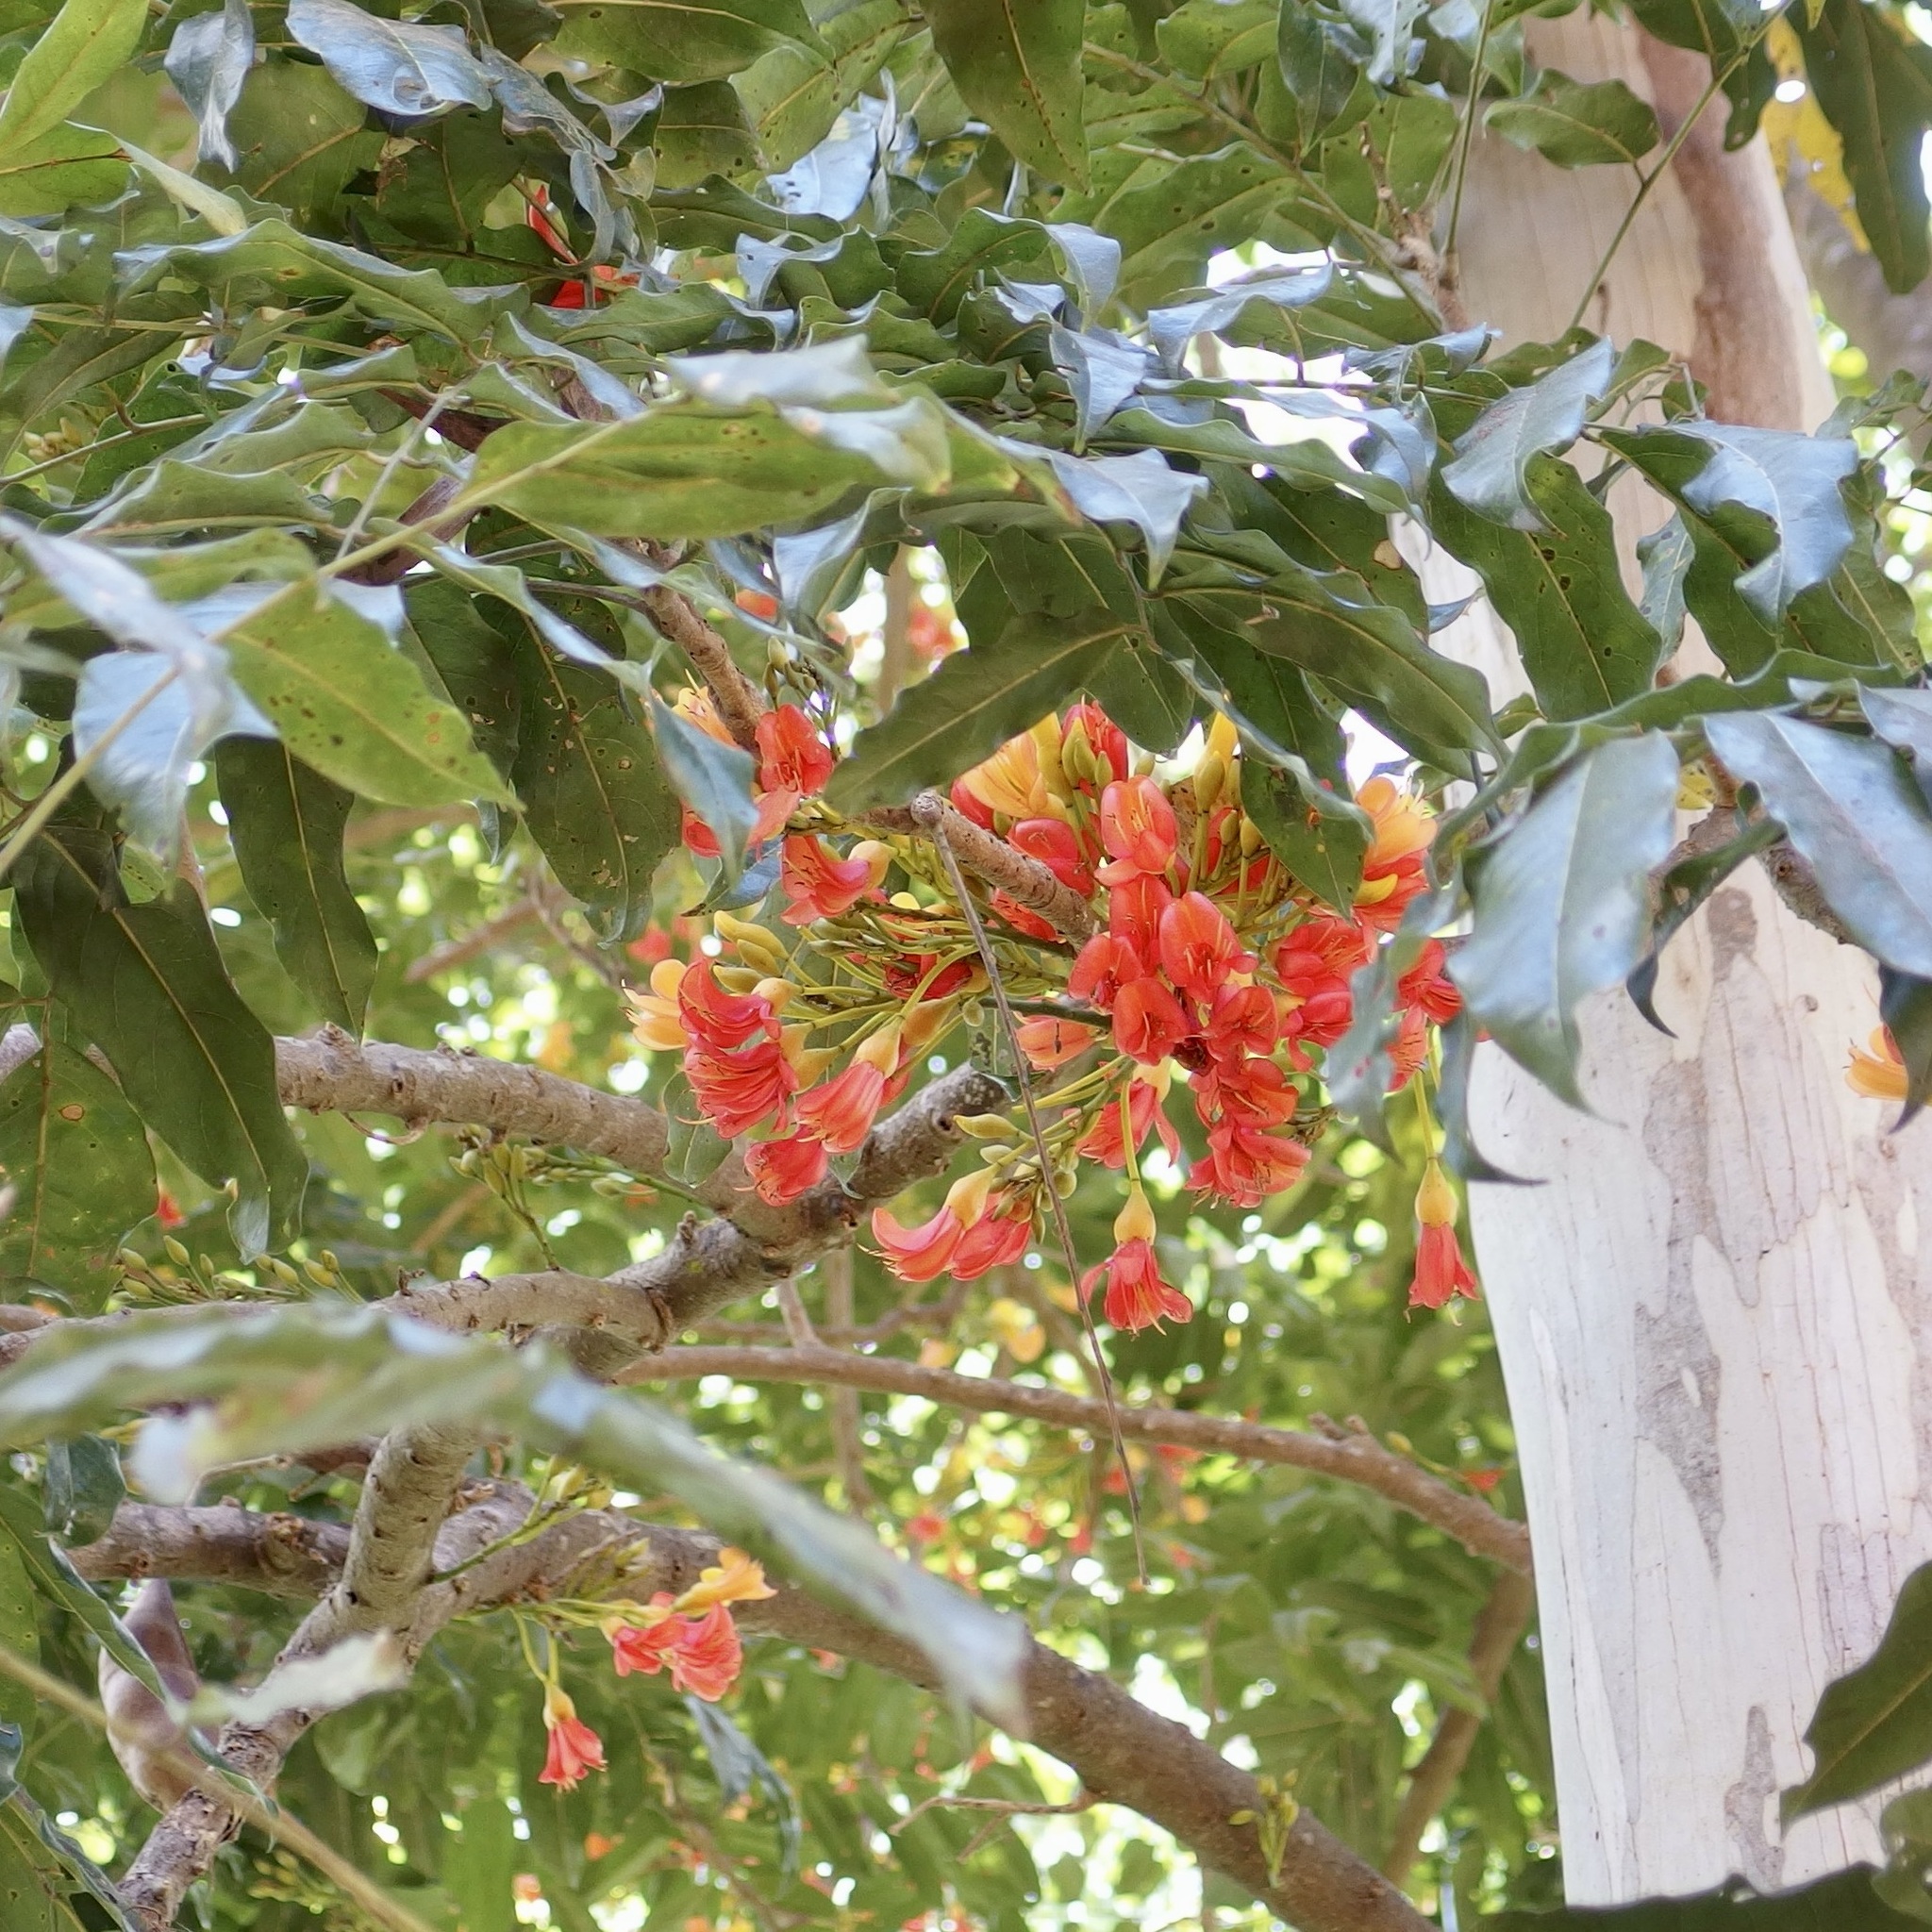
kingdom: Plantae
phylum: Tracheophyta
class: Magnoliopsida
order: Fabales
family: Fabaceae
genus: Castanospermum
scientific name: Castanospermum australe
